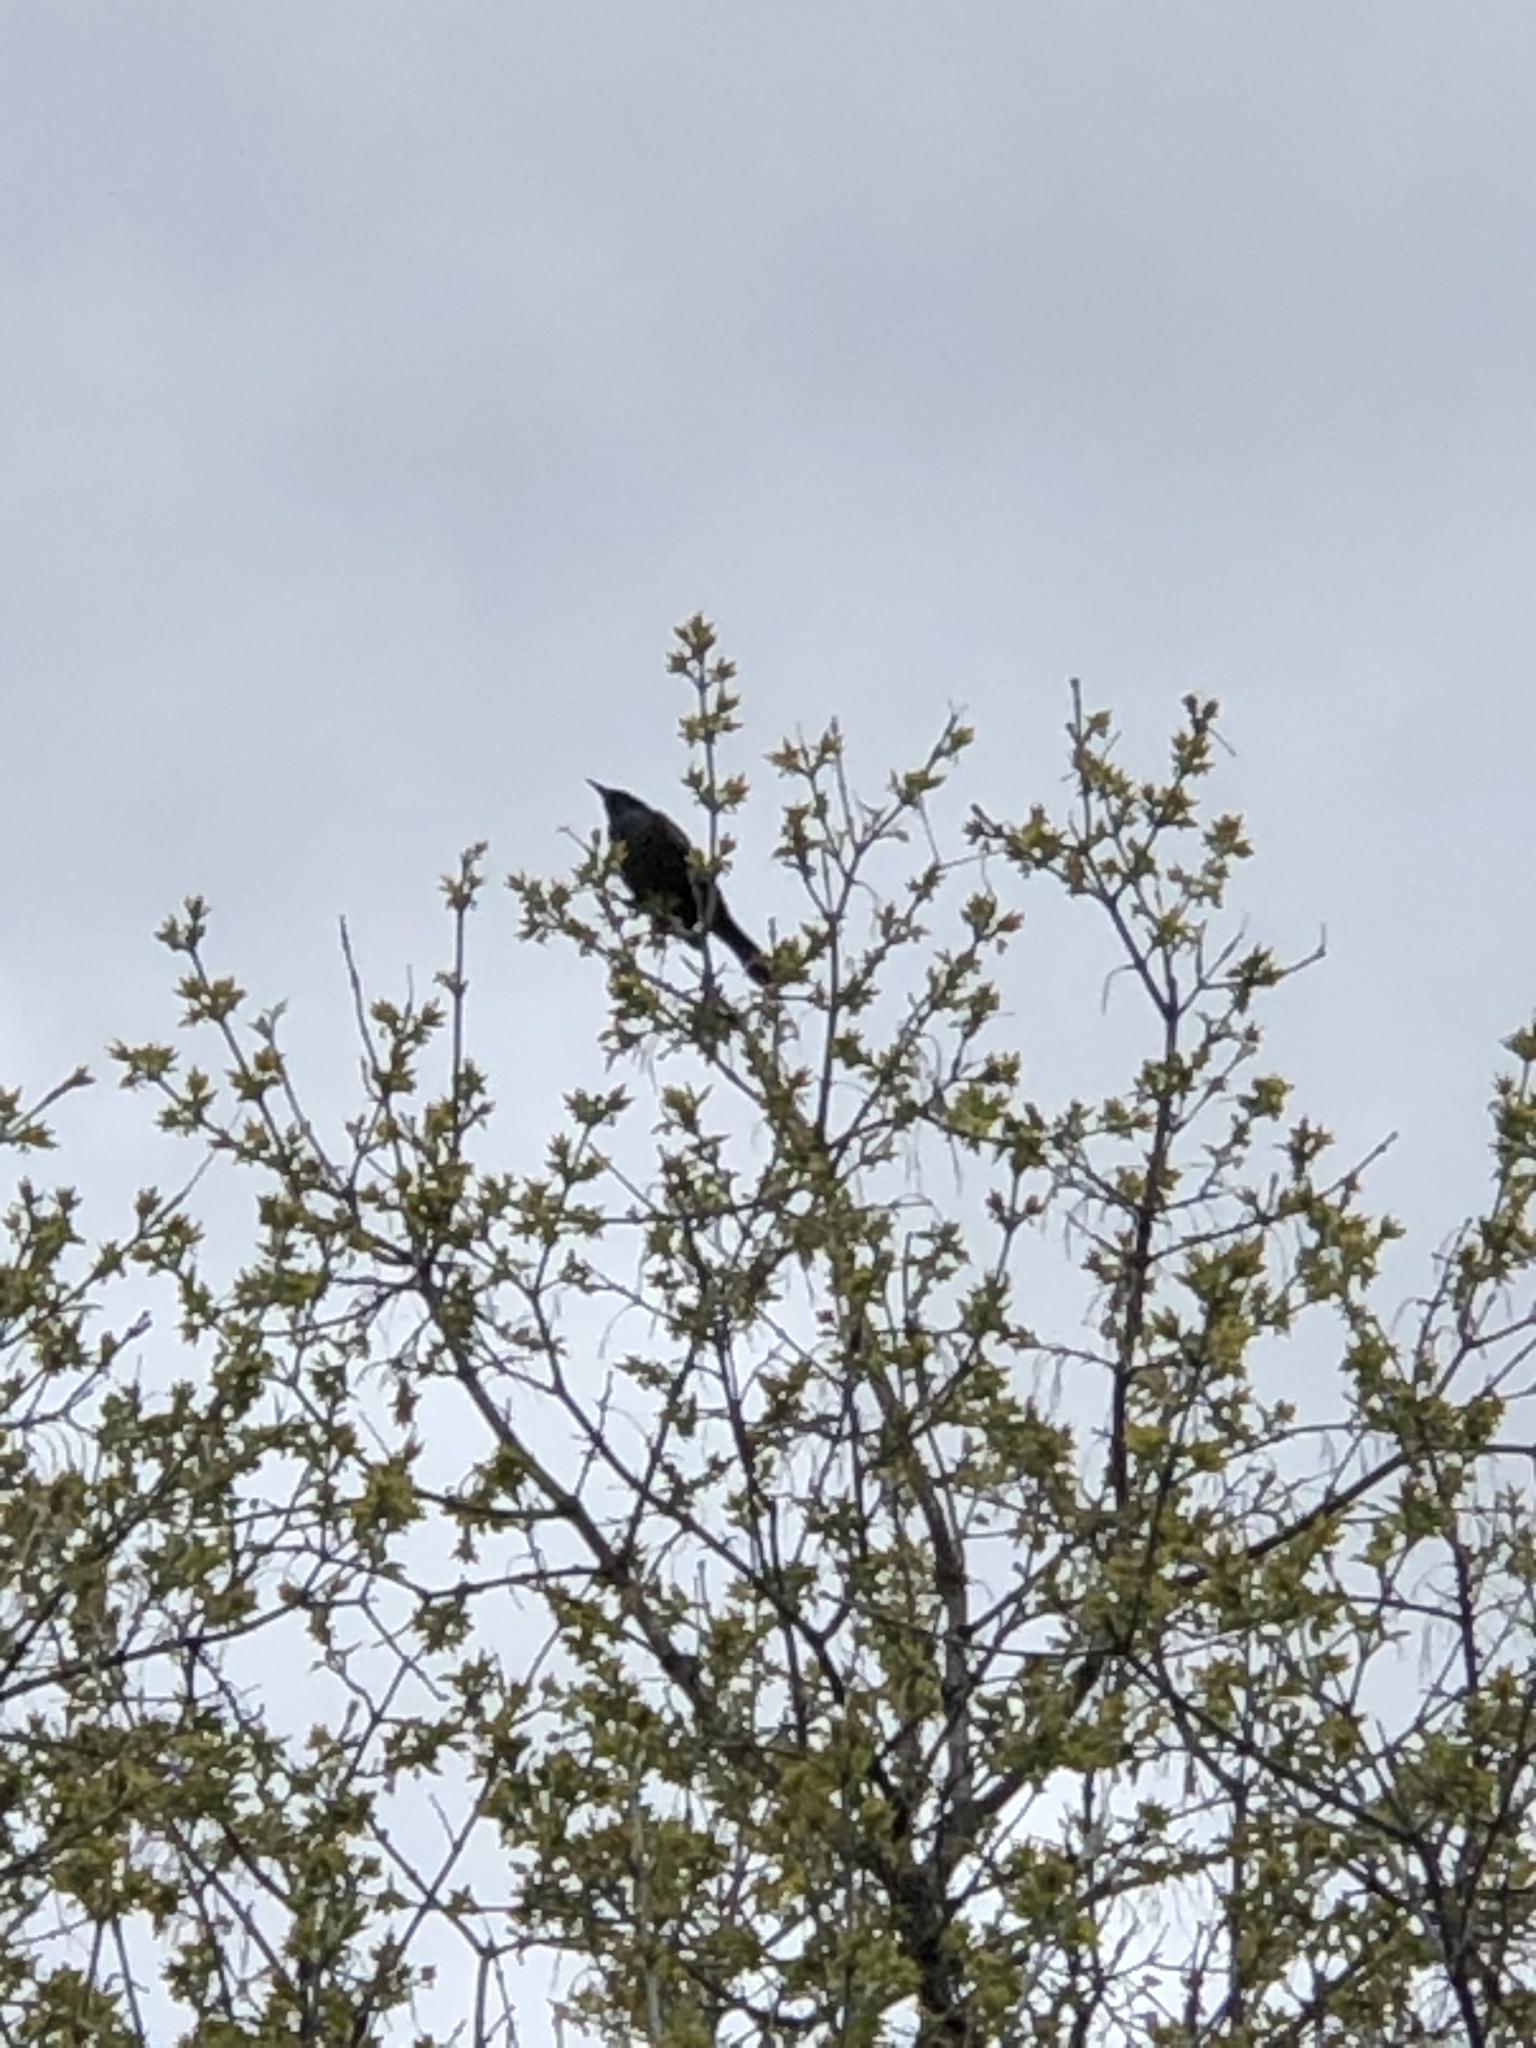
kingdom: Animalia
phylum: Chordata
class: Aves
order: Passeriformes
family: Icteridae
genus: Quiscalus
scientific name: Quiscalus quiscula
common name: Common grackle
